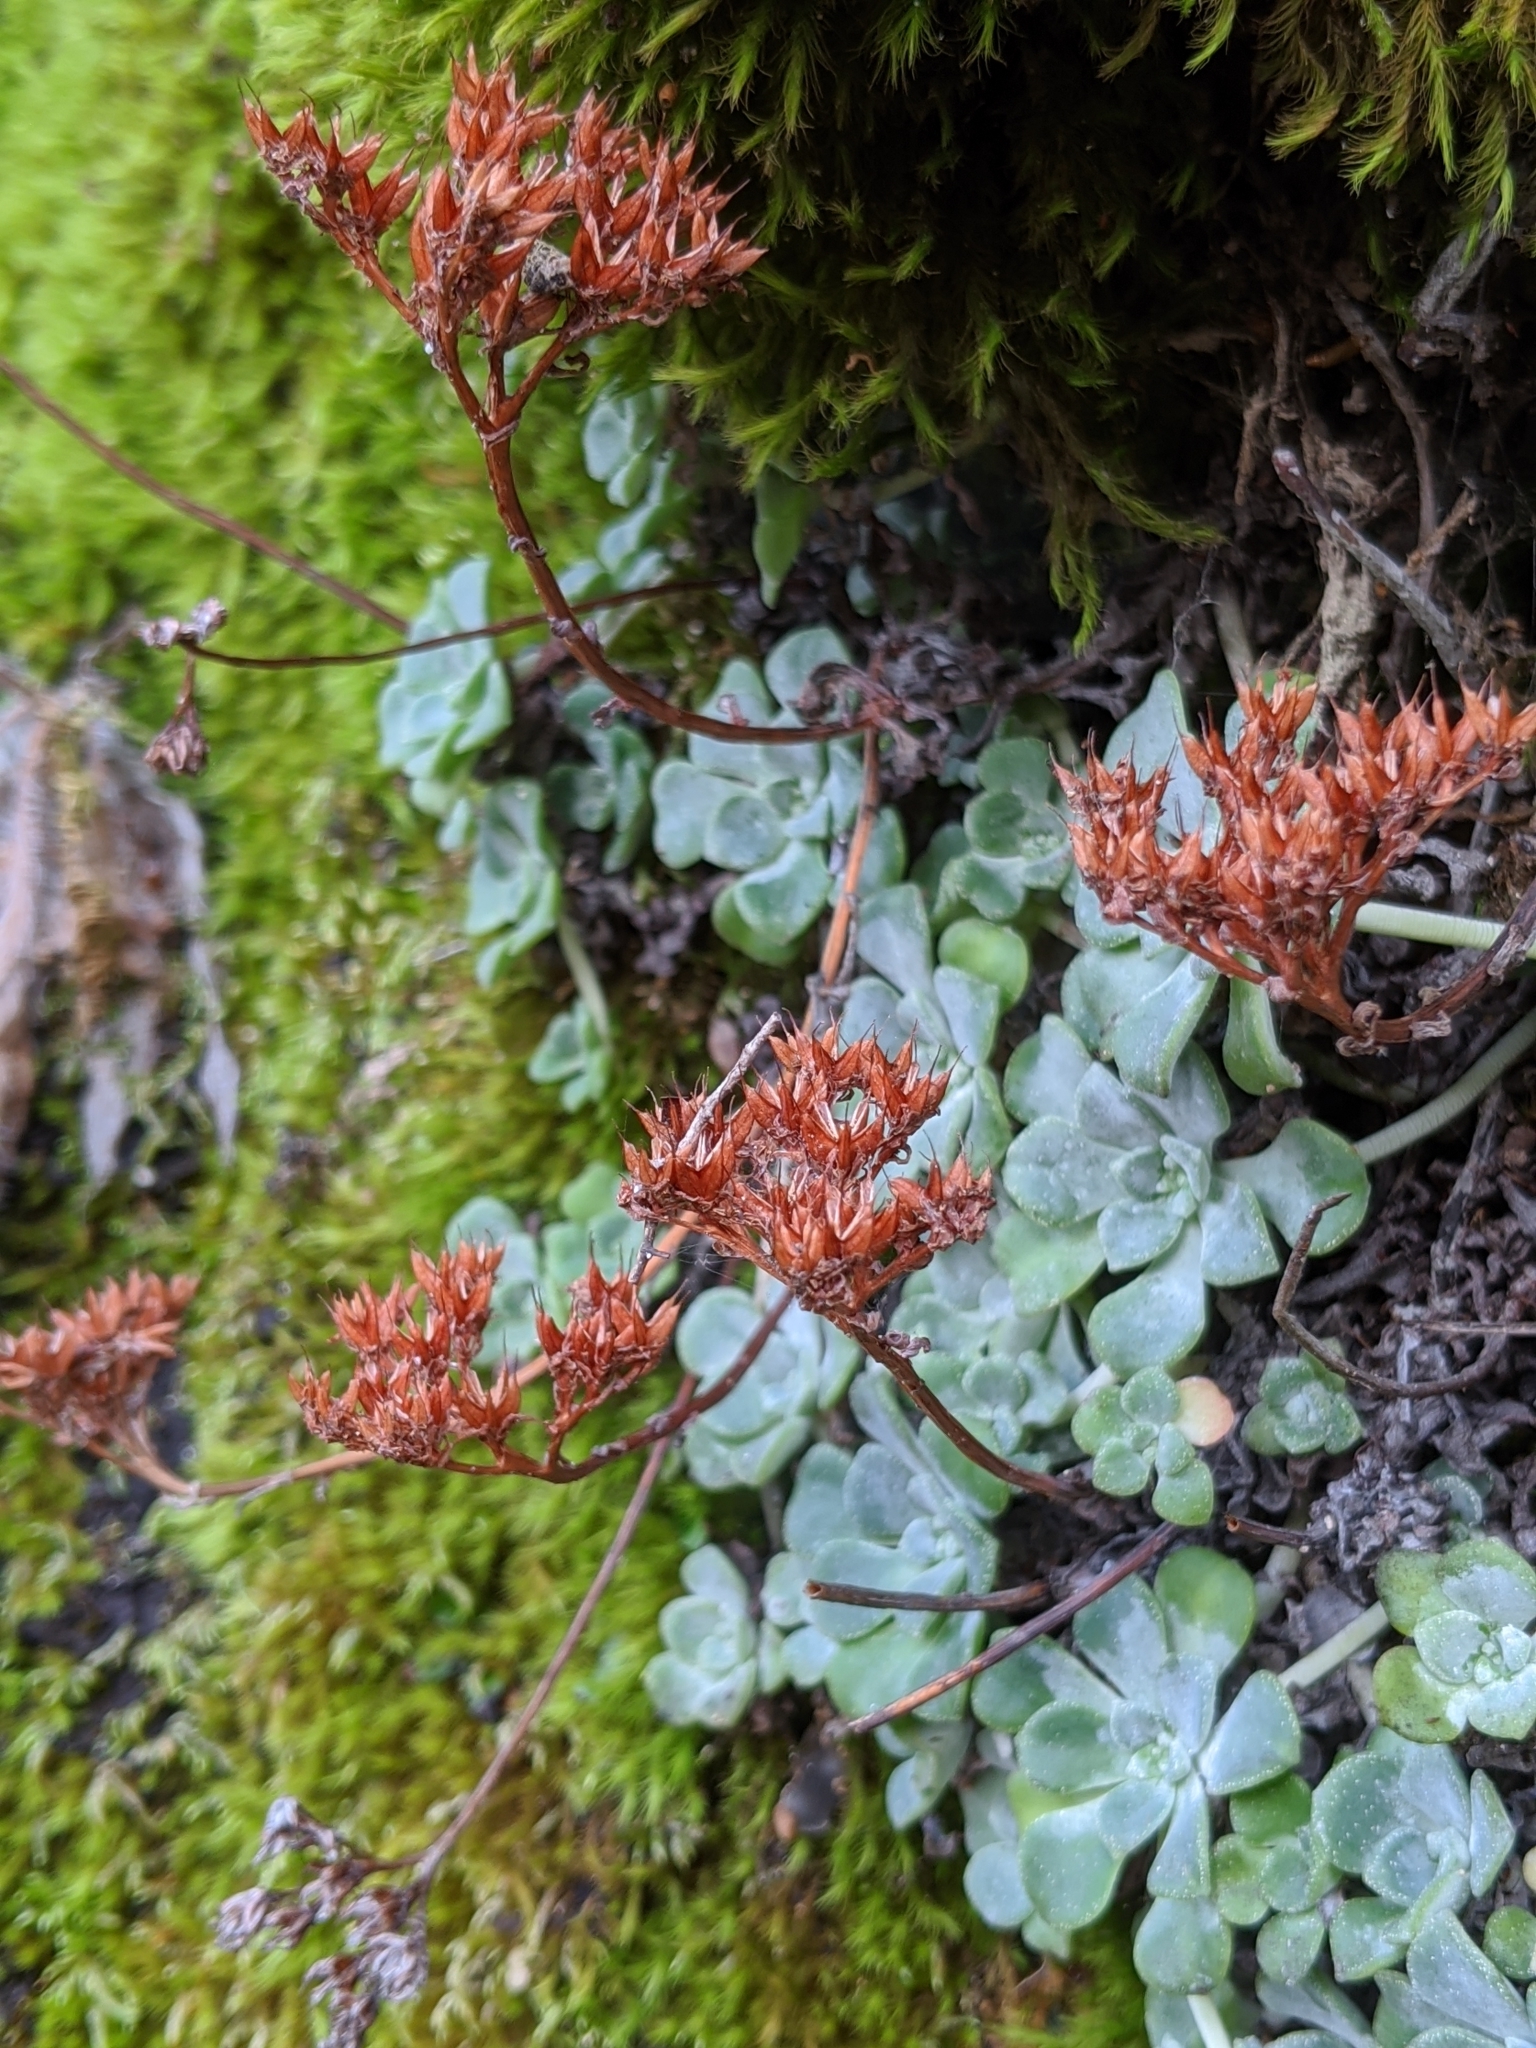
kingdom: Plantae
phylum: Tracheophyta
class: Magnoliopsida
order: Saxifragales
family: Crassulaceae
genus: Sedum
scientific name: Sedum spathulifolium
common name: Colorado stonecrop
